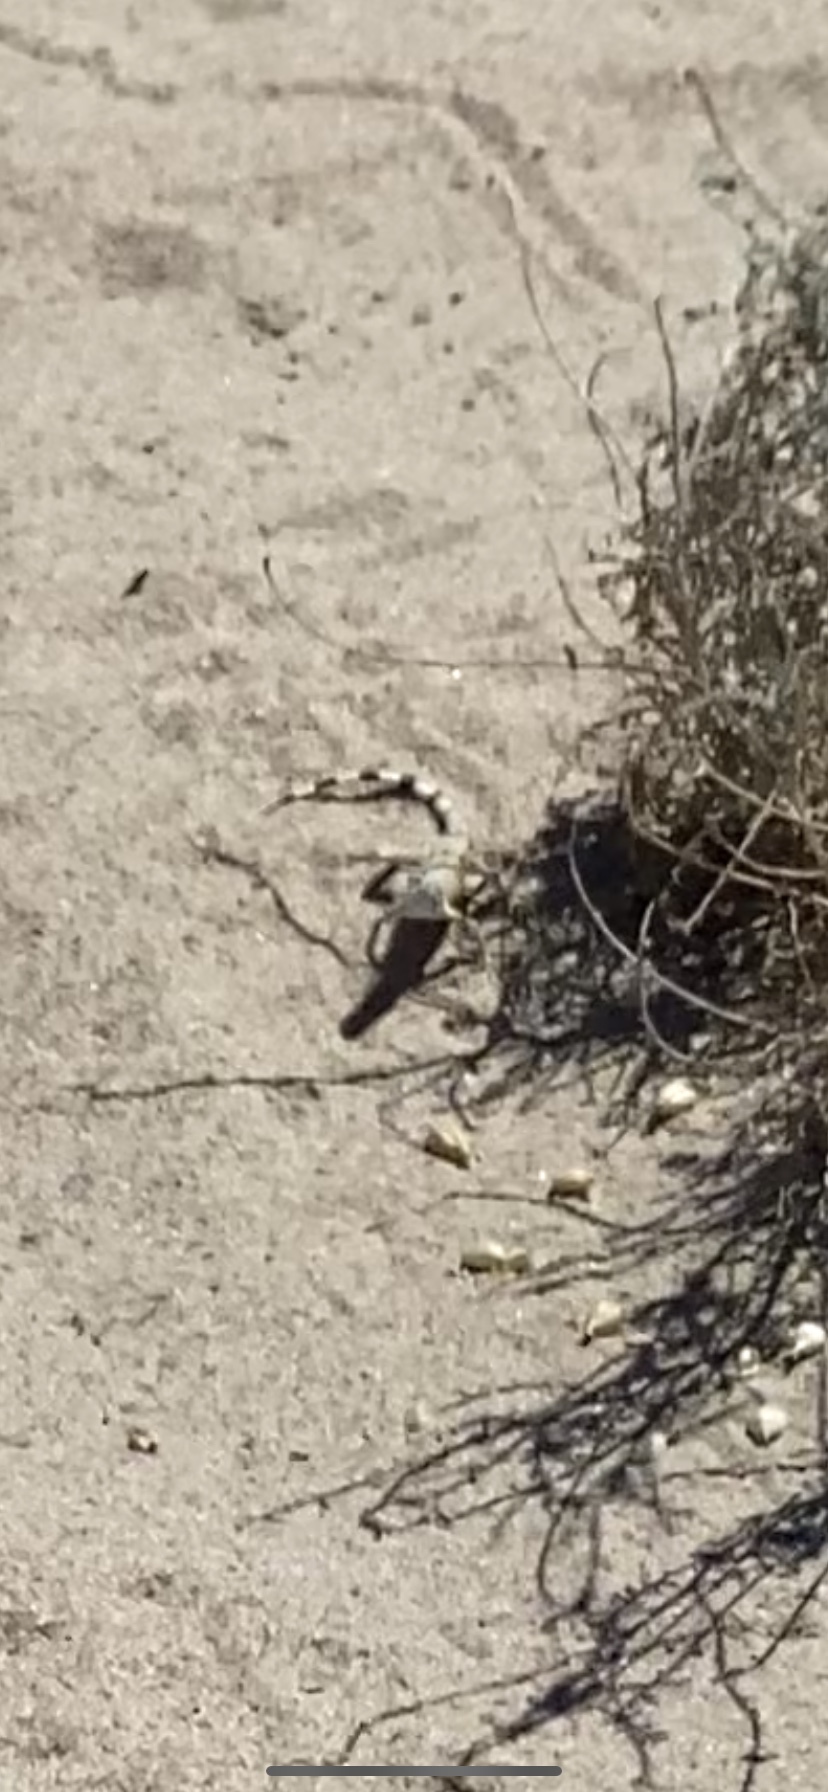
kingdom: Animalia
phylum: Chordata
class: Squamata
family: Phrynosomatidae
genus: Callisaurus
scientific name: Callisaurus draconoides
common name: Zebra-tailed lizard
